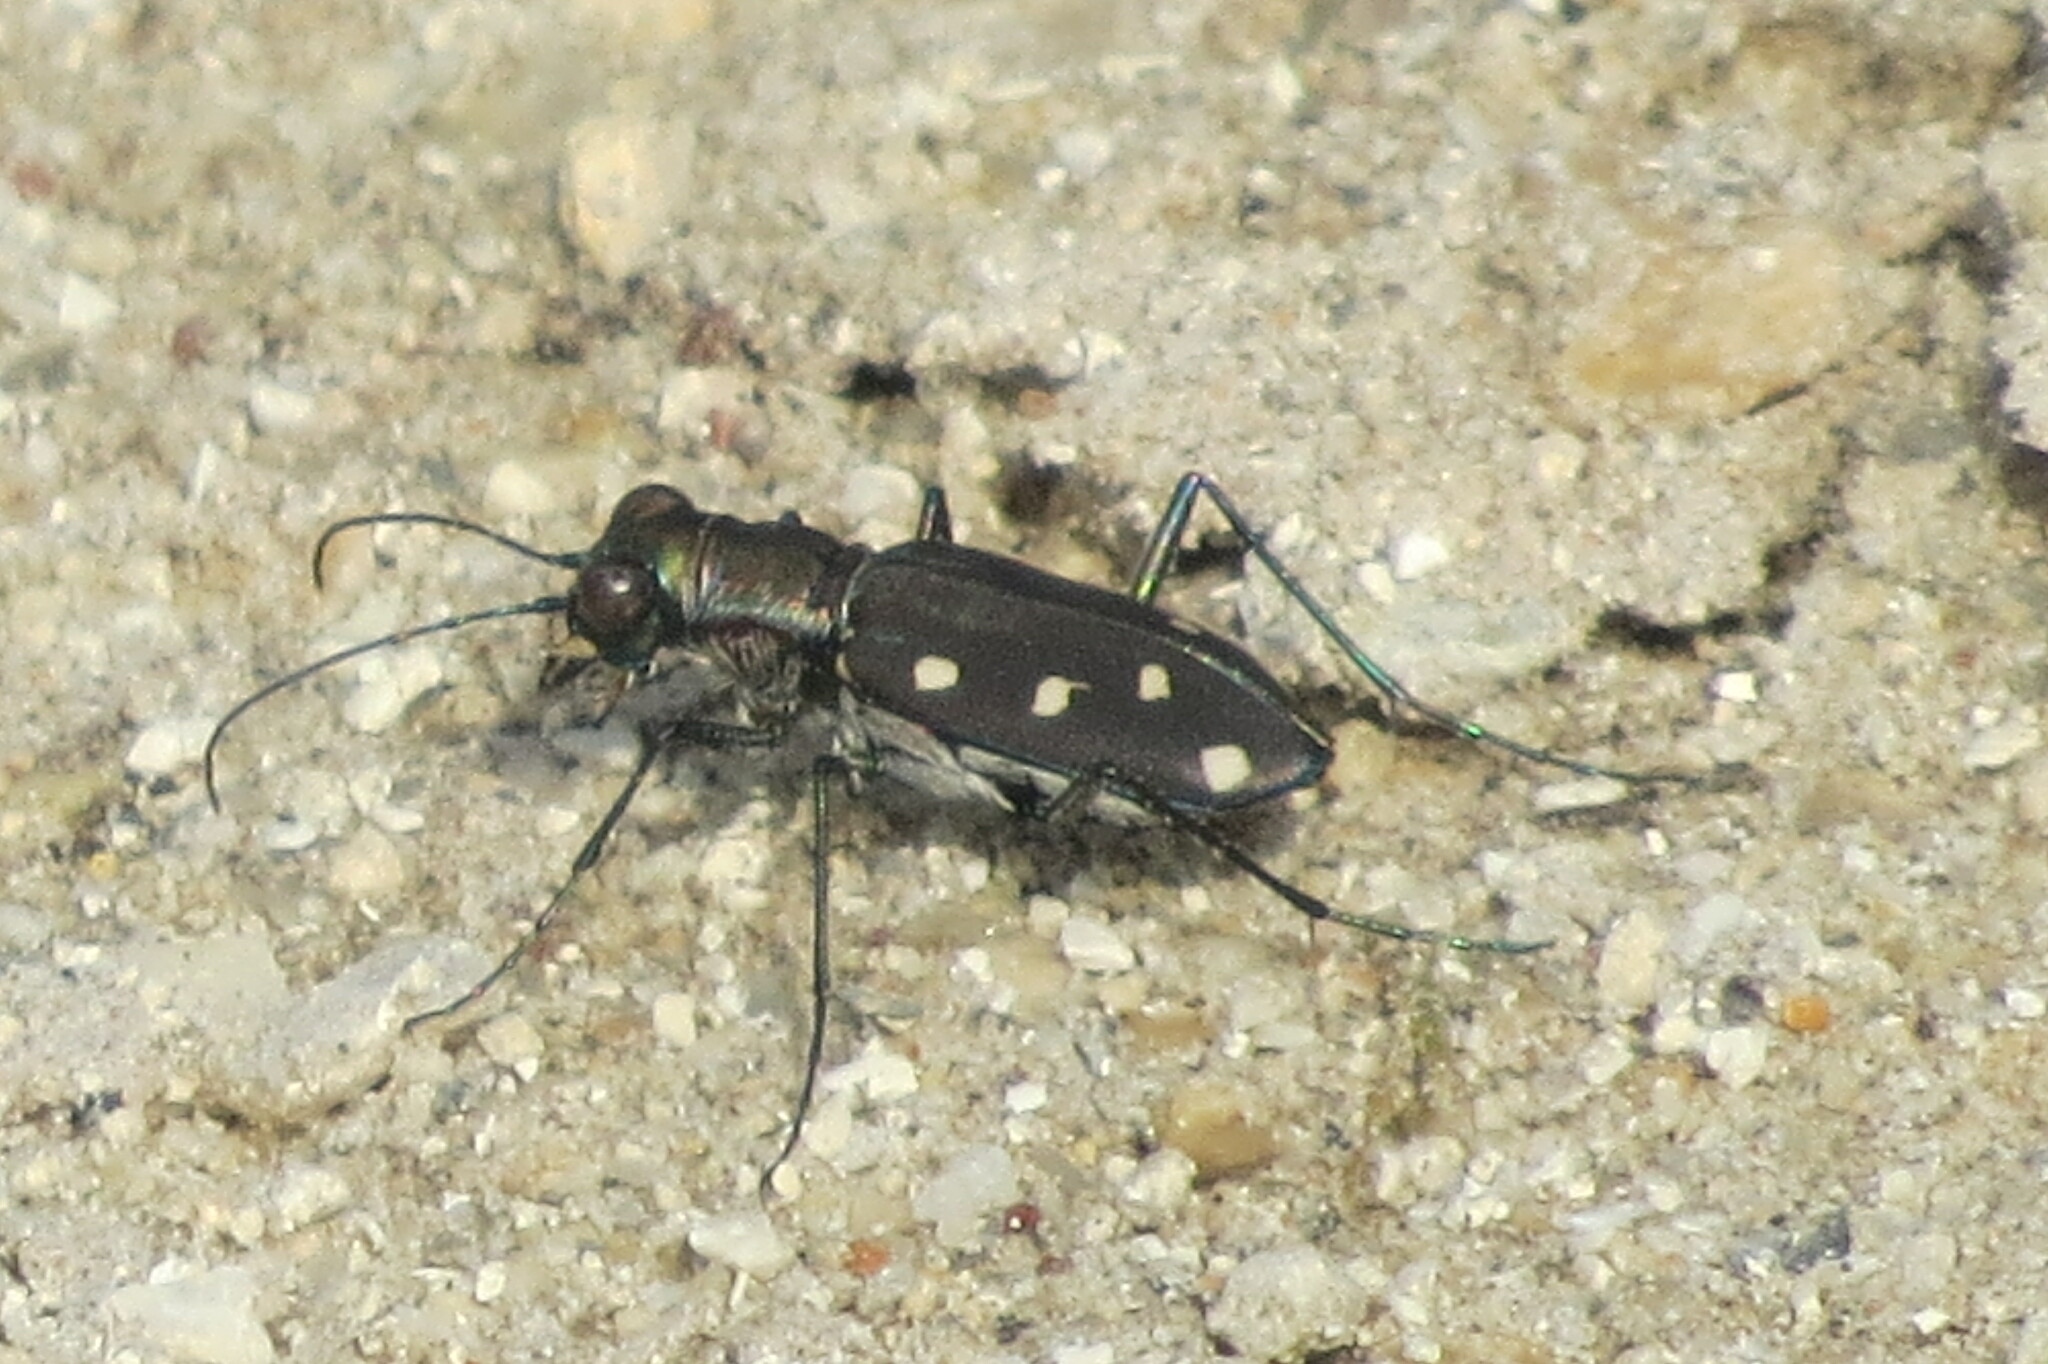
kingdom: Animalia
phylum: Arthropoda
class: Insecta
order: Coleoptera
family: Carabidae
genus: Cicindela
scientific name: Cicindela ocellata
